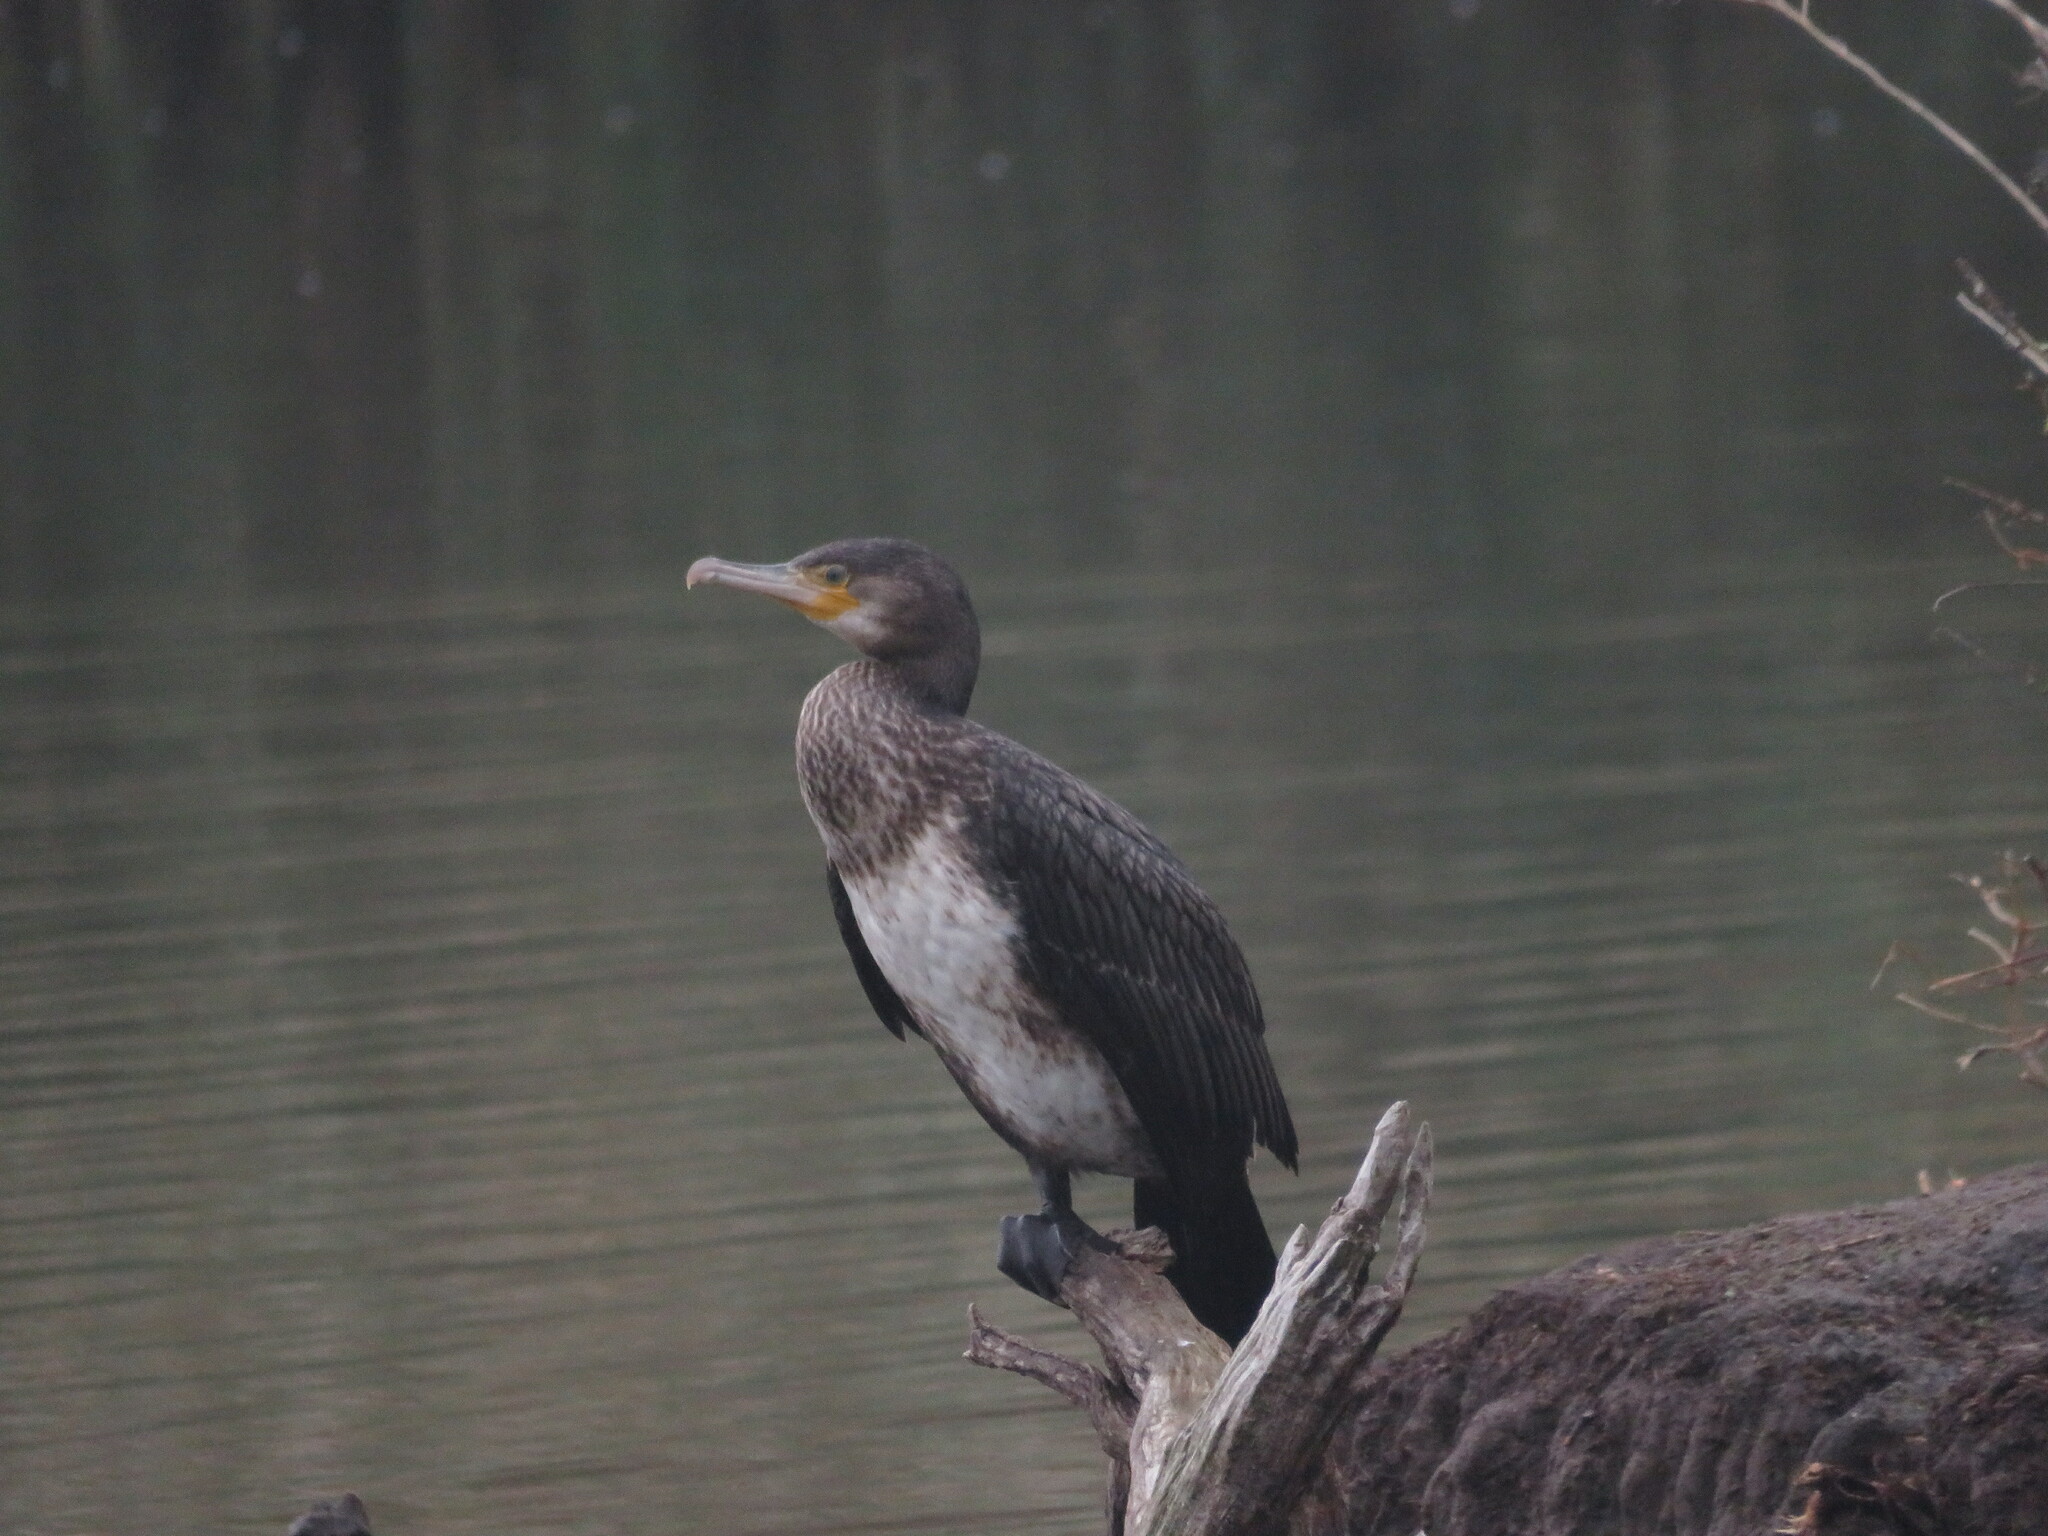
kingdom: Animalia
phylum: Chordata
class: Aves
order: Suliformes
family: Phalacrocoracidae
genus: Phalacrocorax
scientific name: Phalacrocorax carbo
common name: Great cormorant
